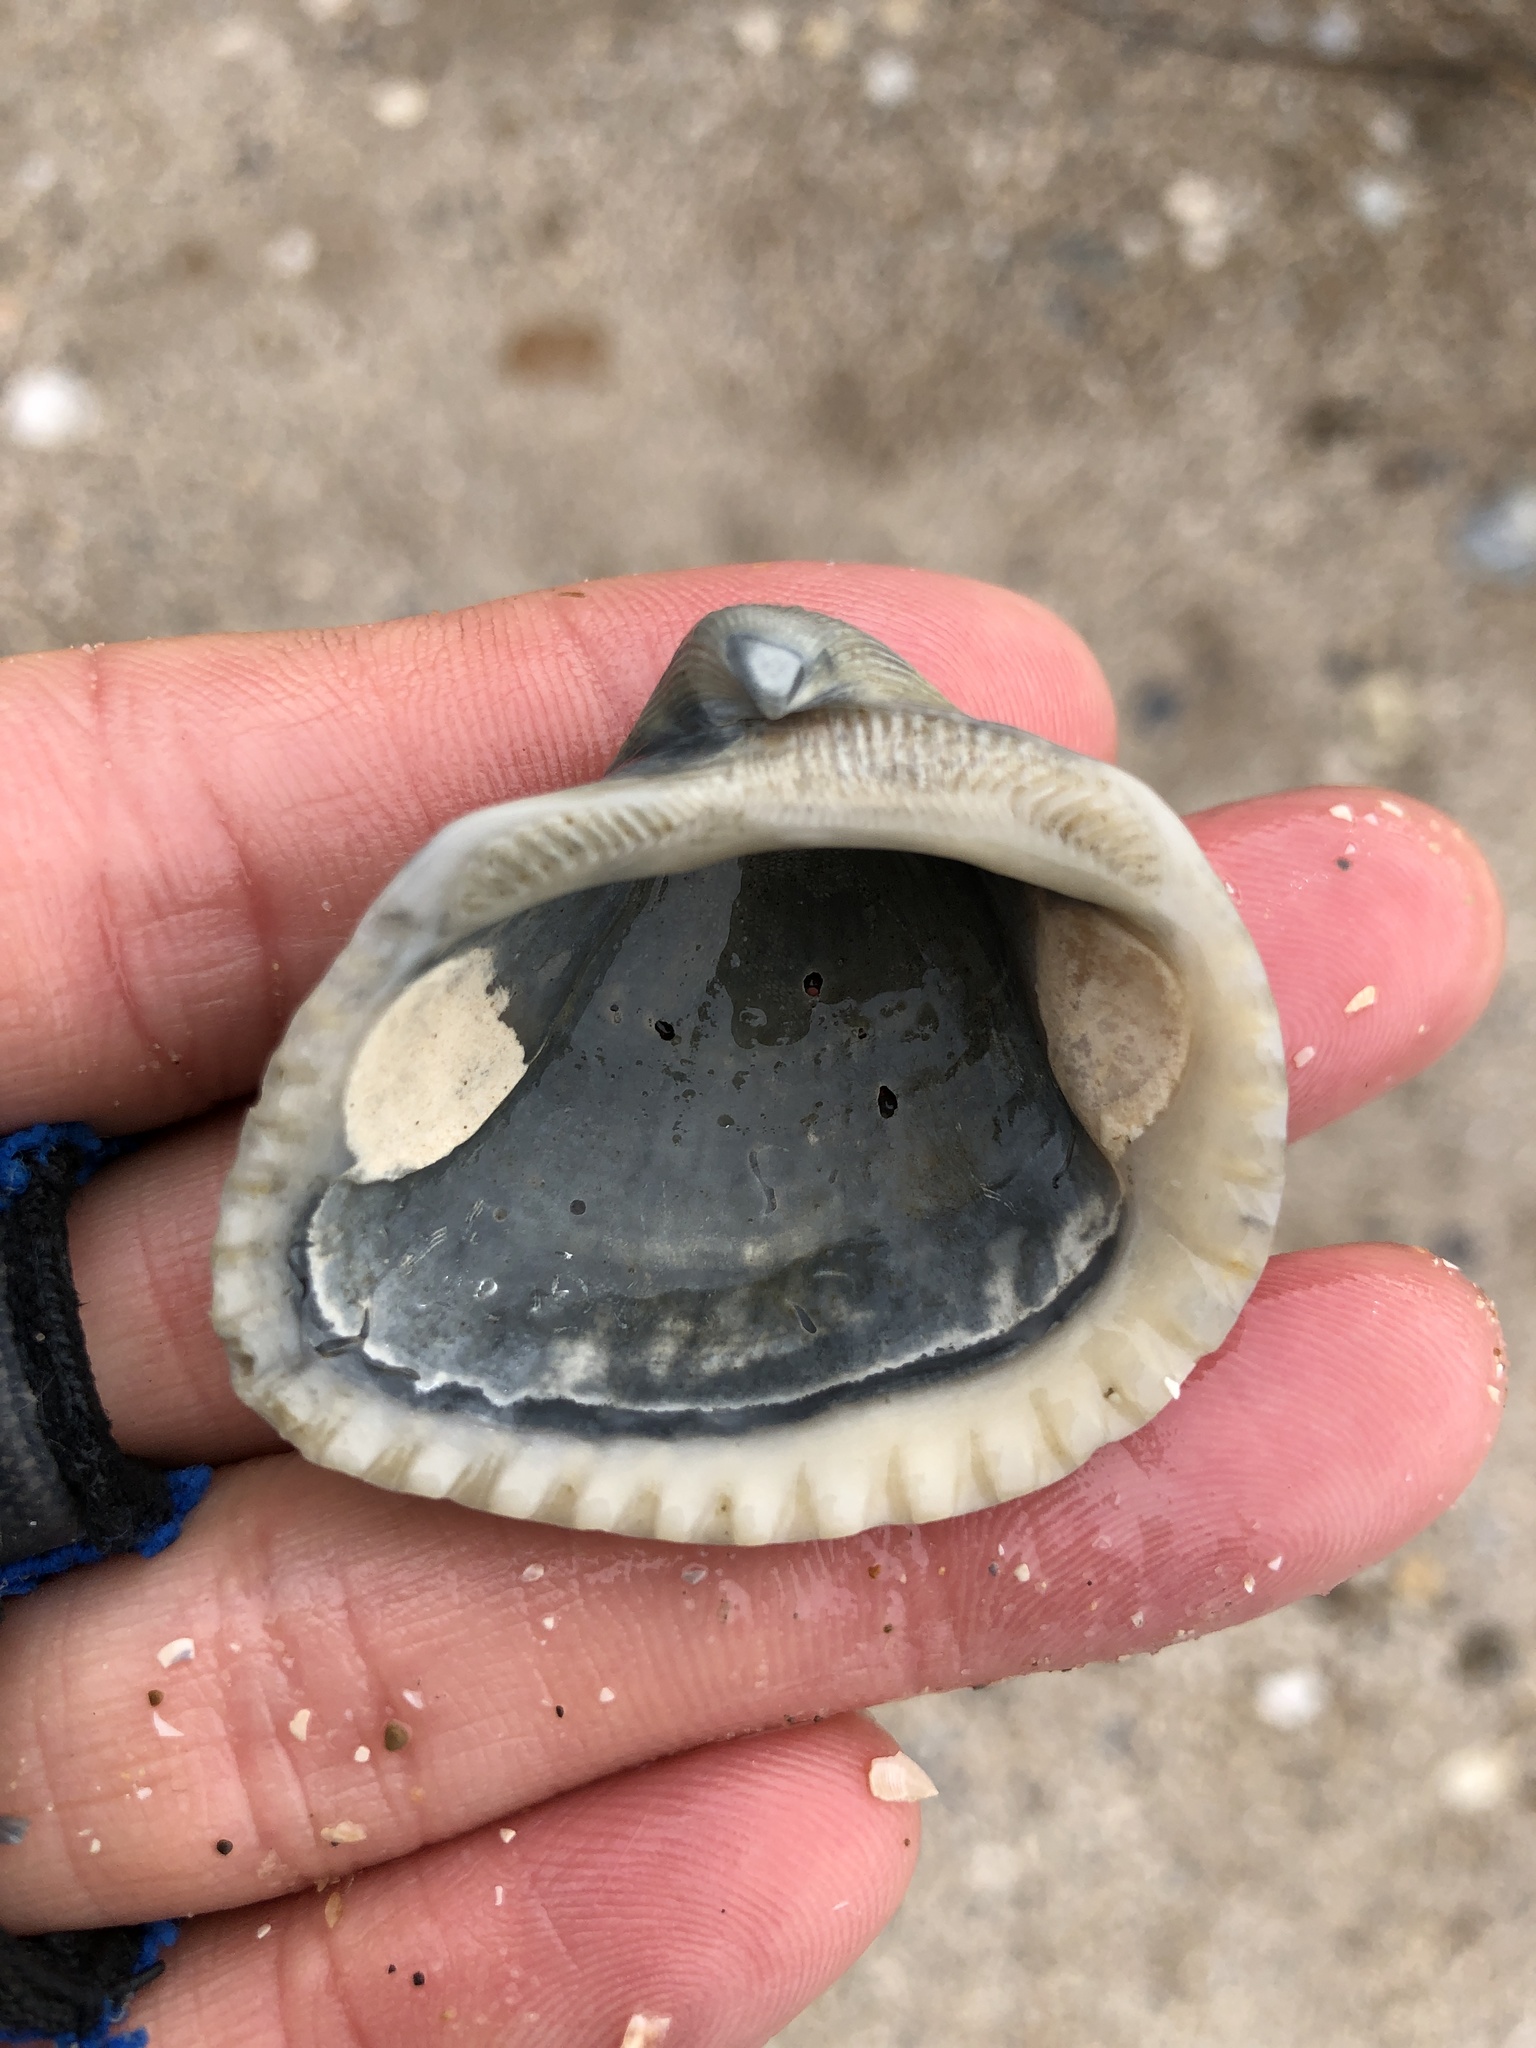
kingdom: Animalia
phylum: Mollusca
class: Bivalvia
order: Arcida
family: Noetiidae
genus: Noetia
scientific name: Noetia ponderosa
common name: Ponderous ark
